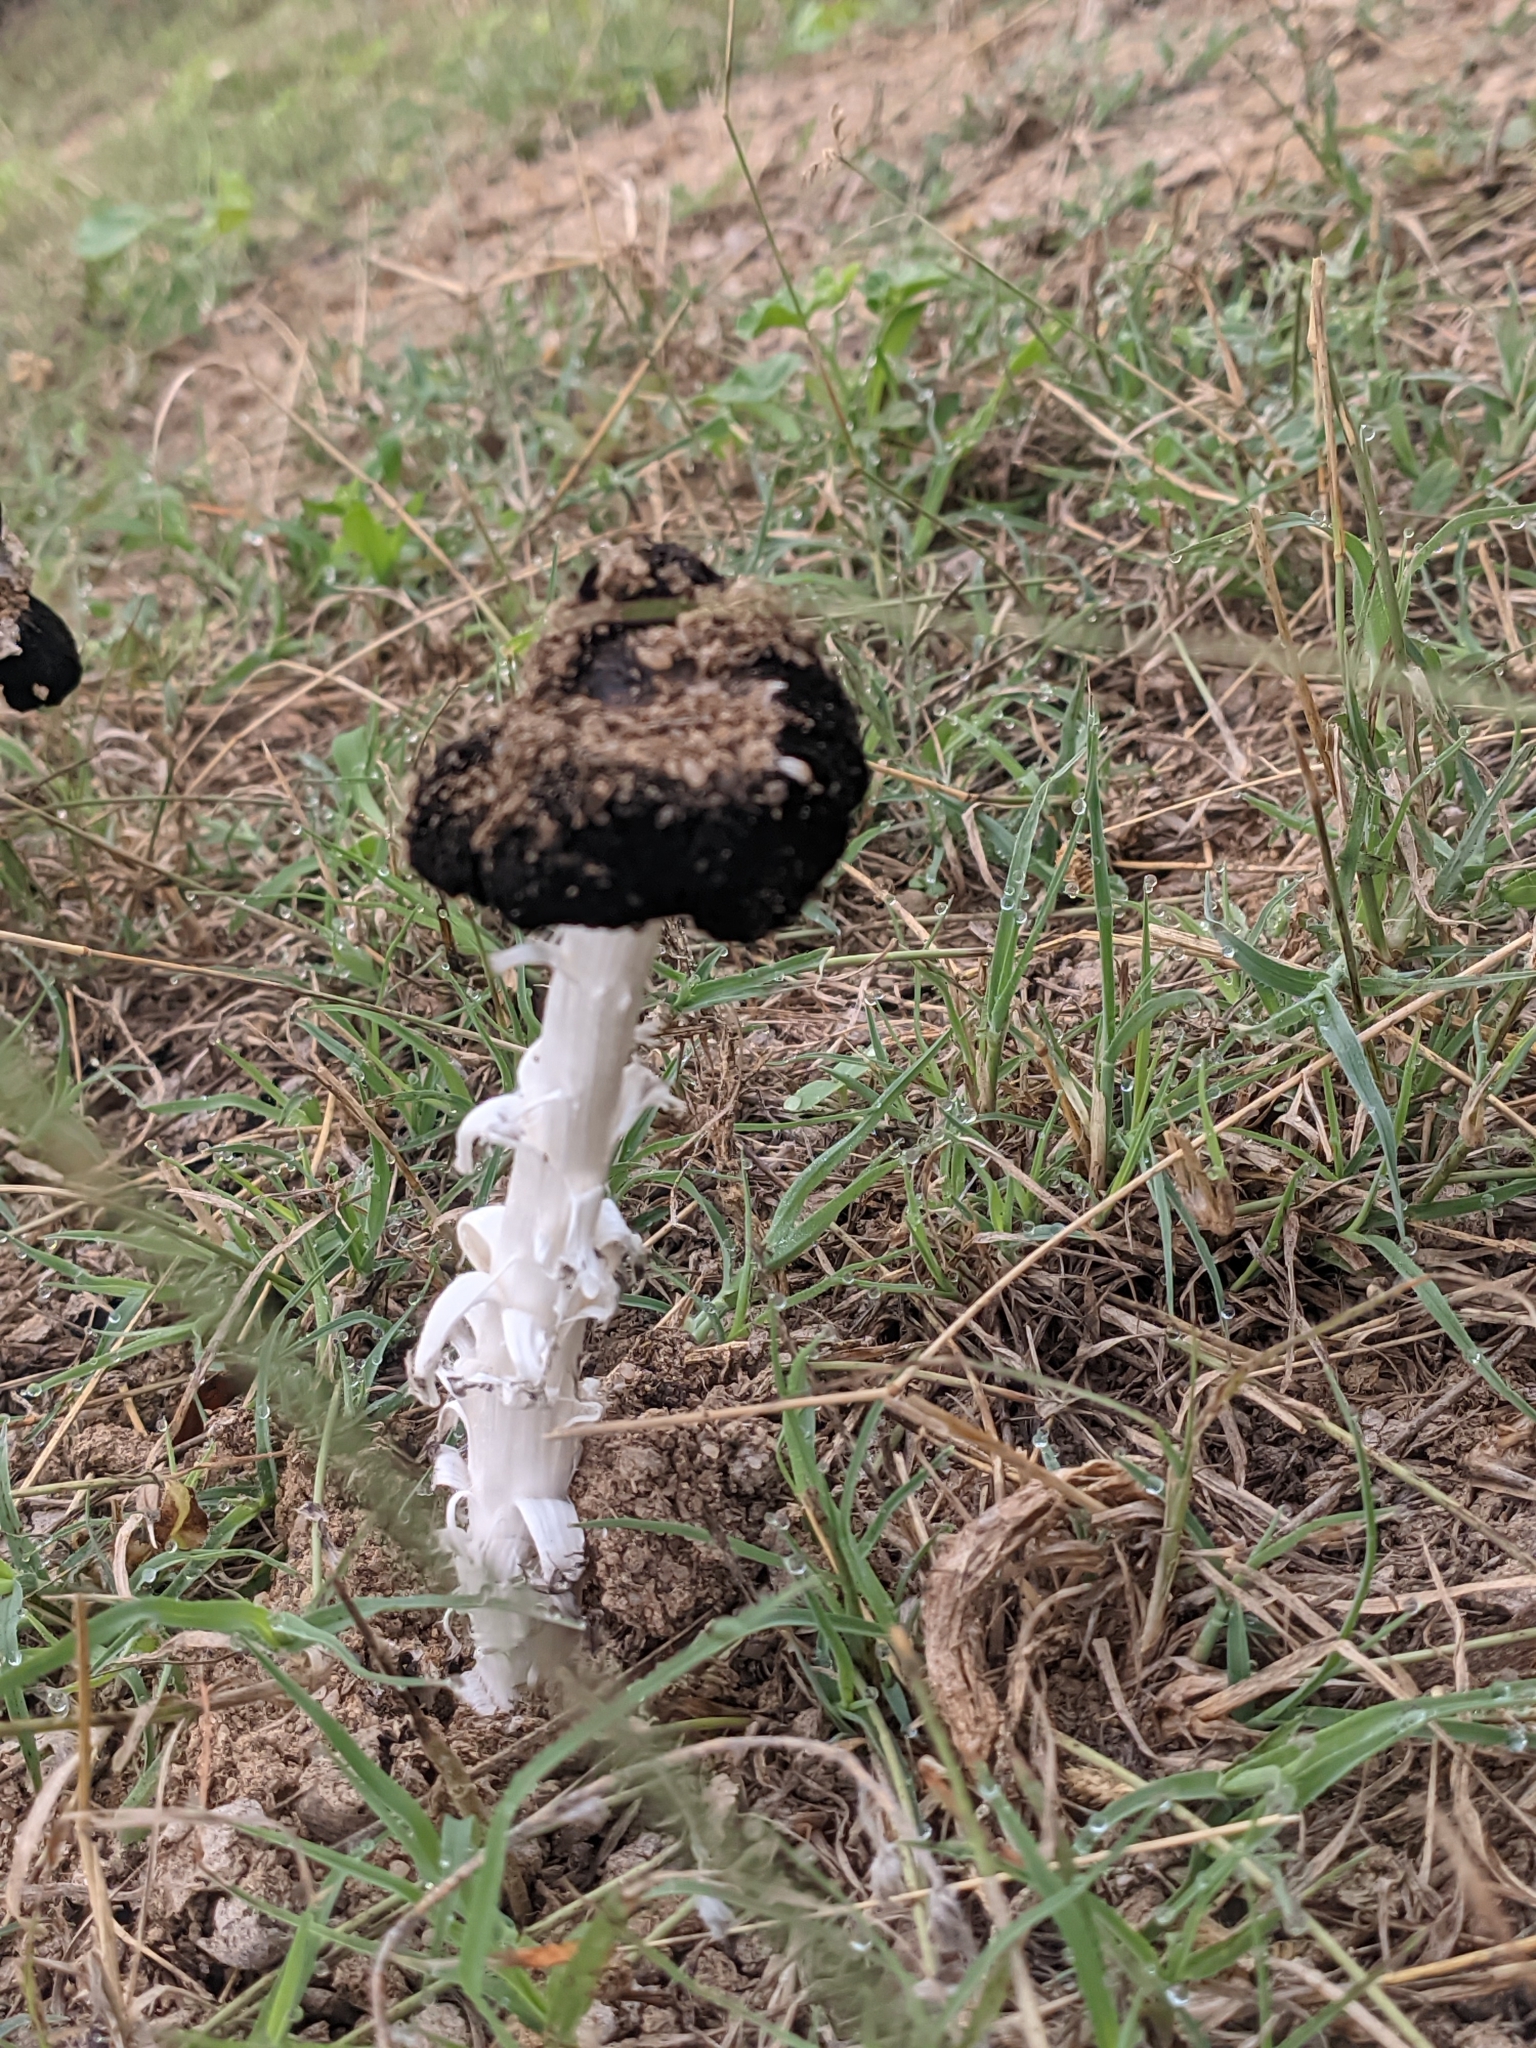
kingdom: Fungi
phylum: Basidiomycota
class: Agaricomycetes
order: Agaricales
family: Agaricaceae
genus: Montagnea
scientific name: Montagnea arenaria
